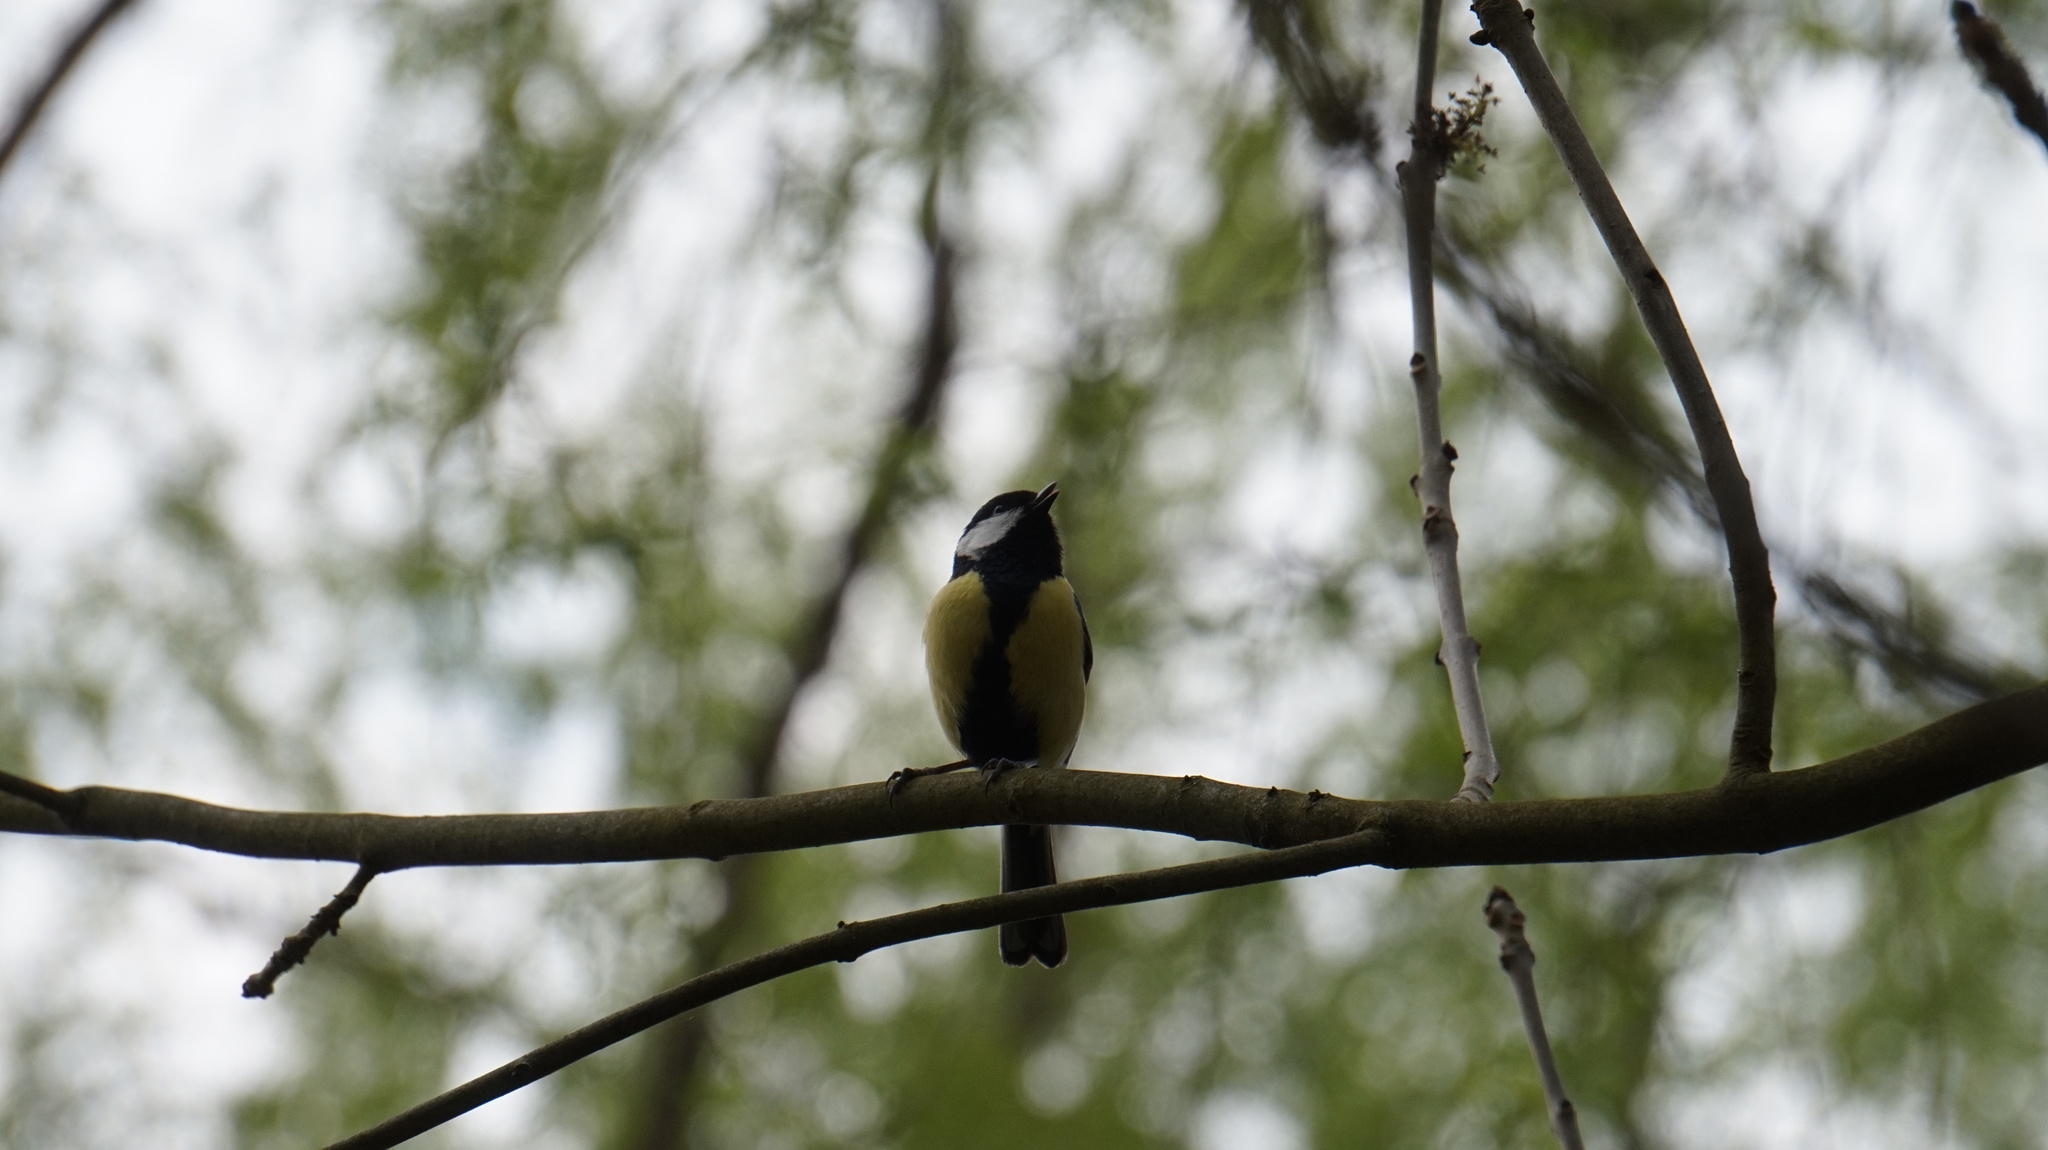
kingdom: Animalia
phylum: Chordata
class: Aves
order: Passeriformes
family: Paridae
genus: Parus
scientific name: Parus major
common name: Great tit
